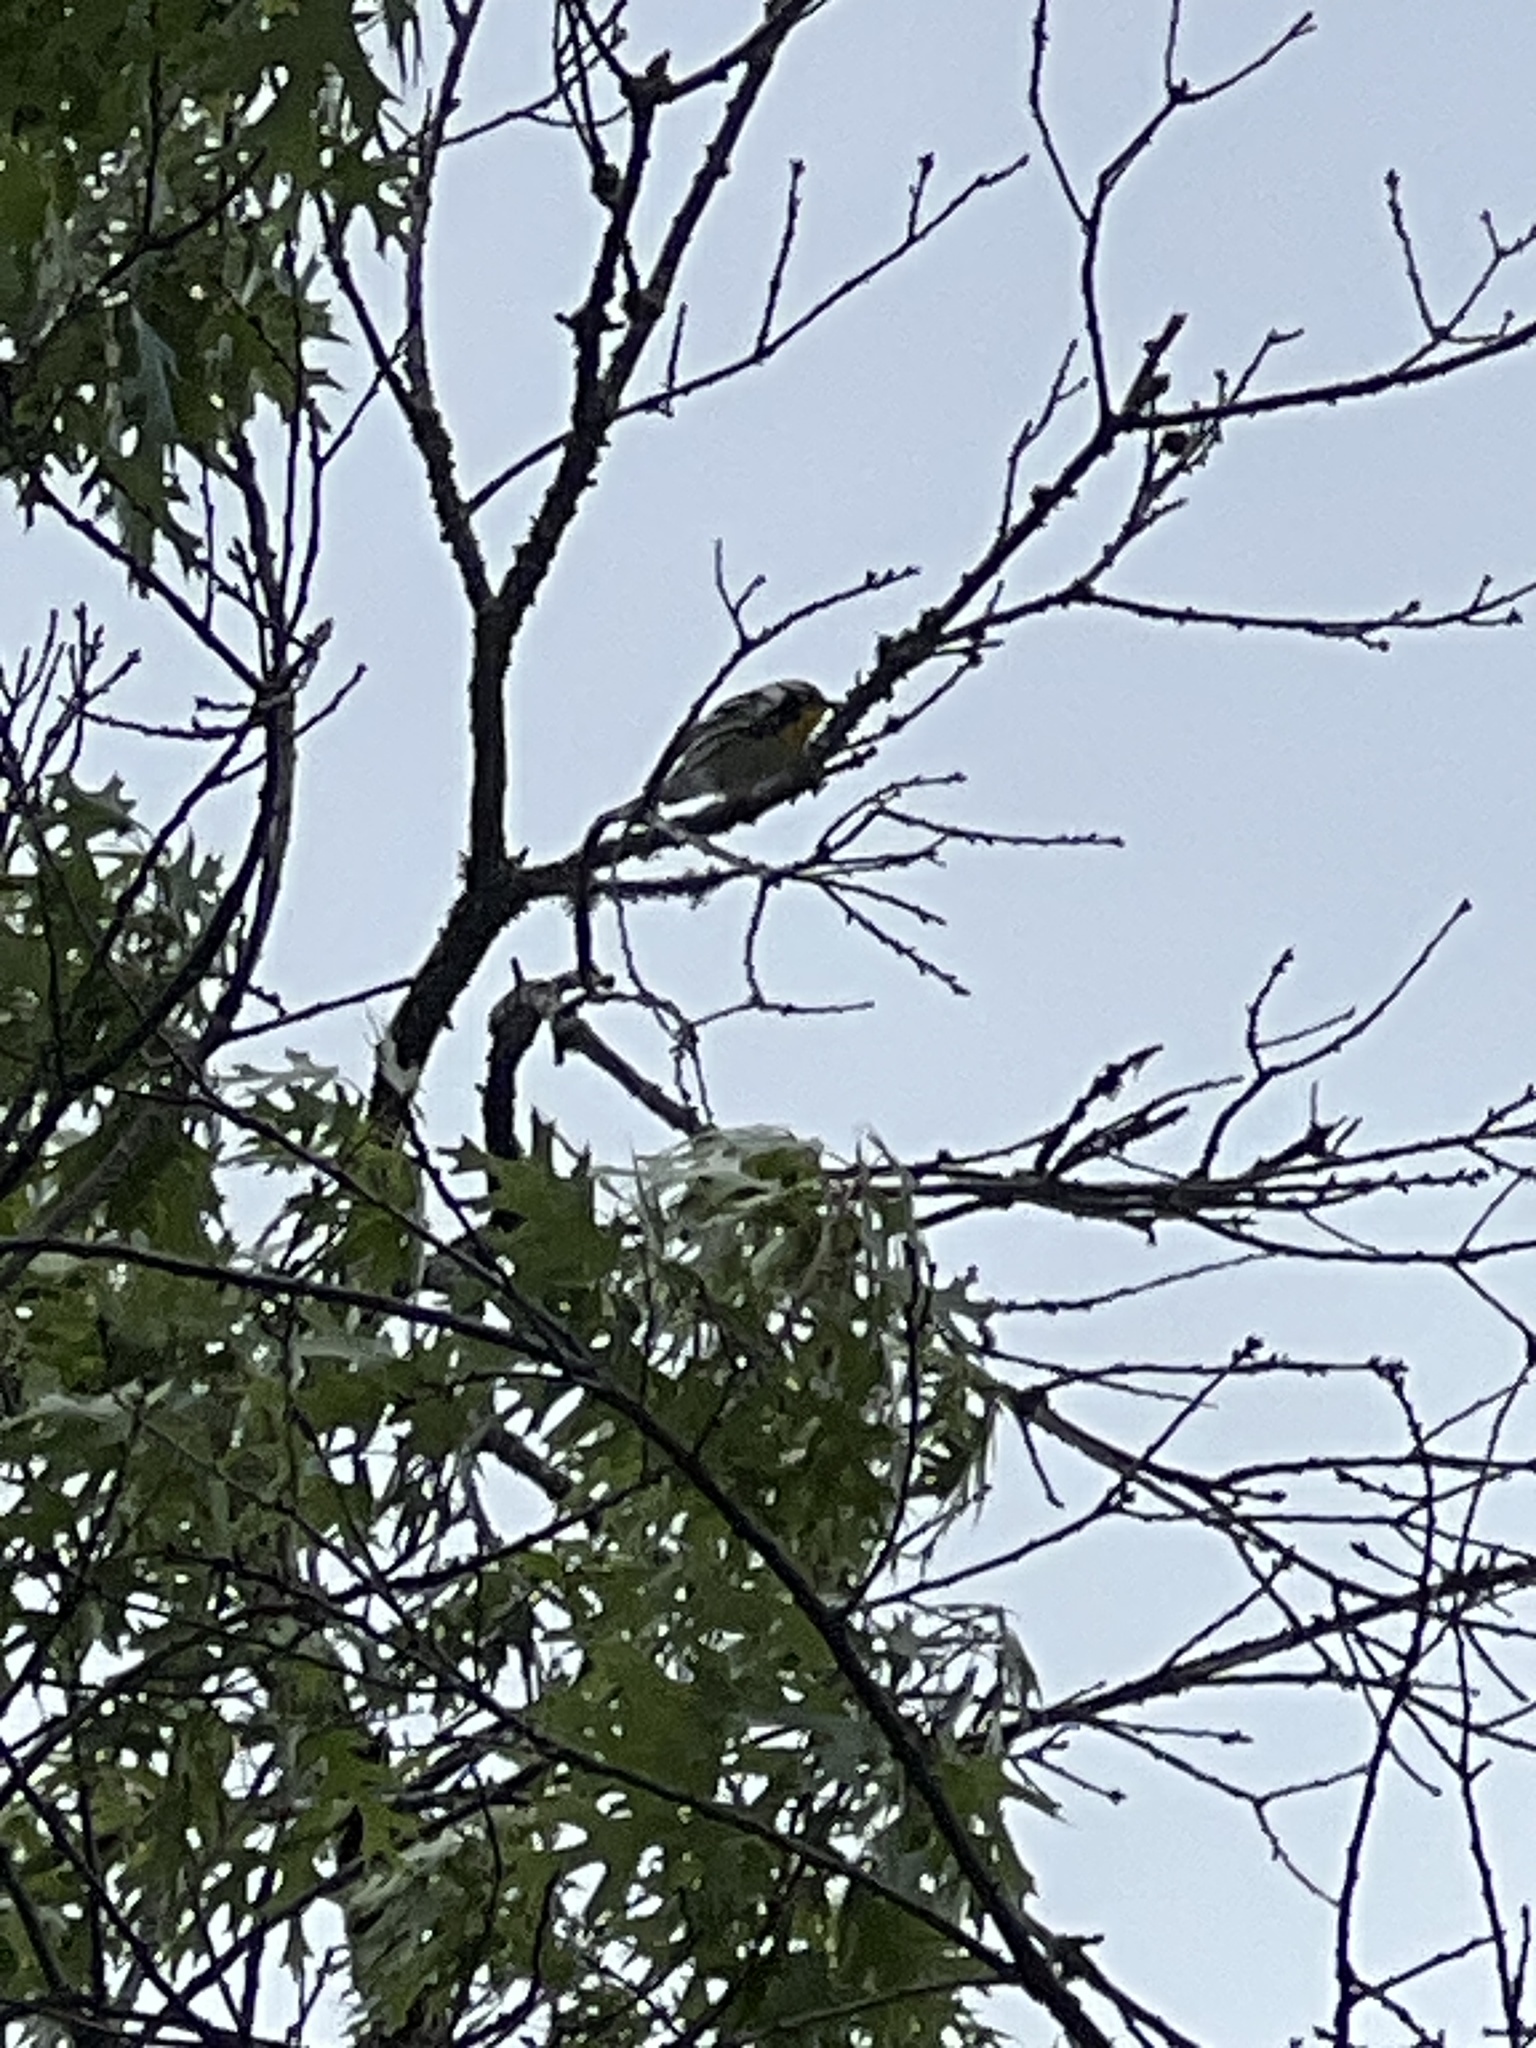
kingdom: Animalia
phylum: Chordata
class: Aves
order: Passeriformes
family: Parulidae
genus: Setophaga
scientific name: Setophaga dominica
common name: Yellow-throated warbler
